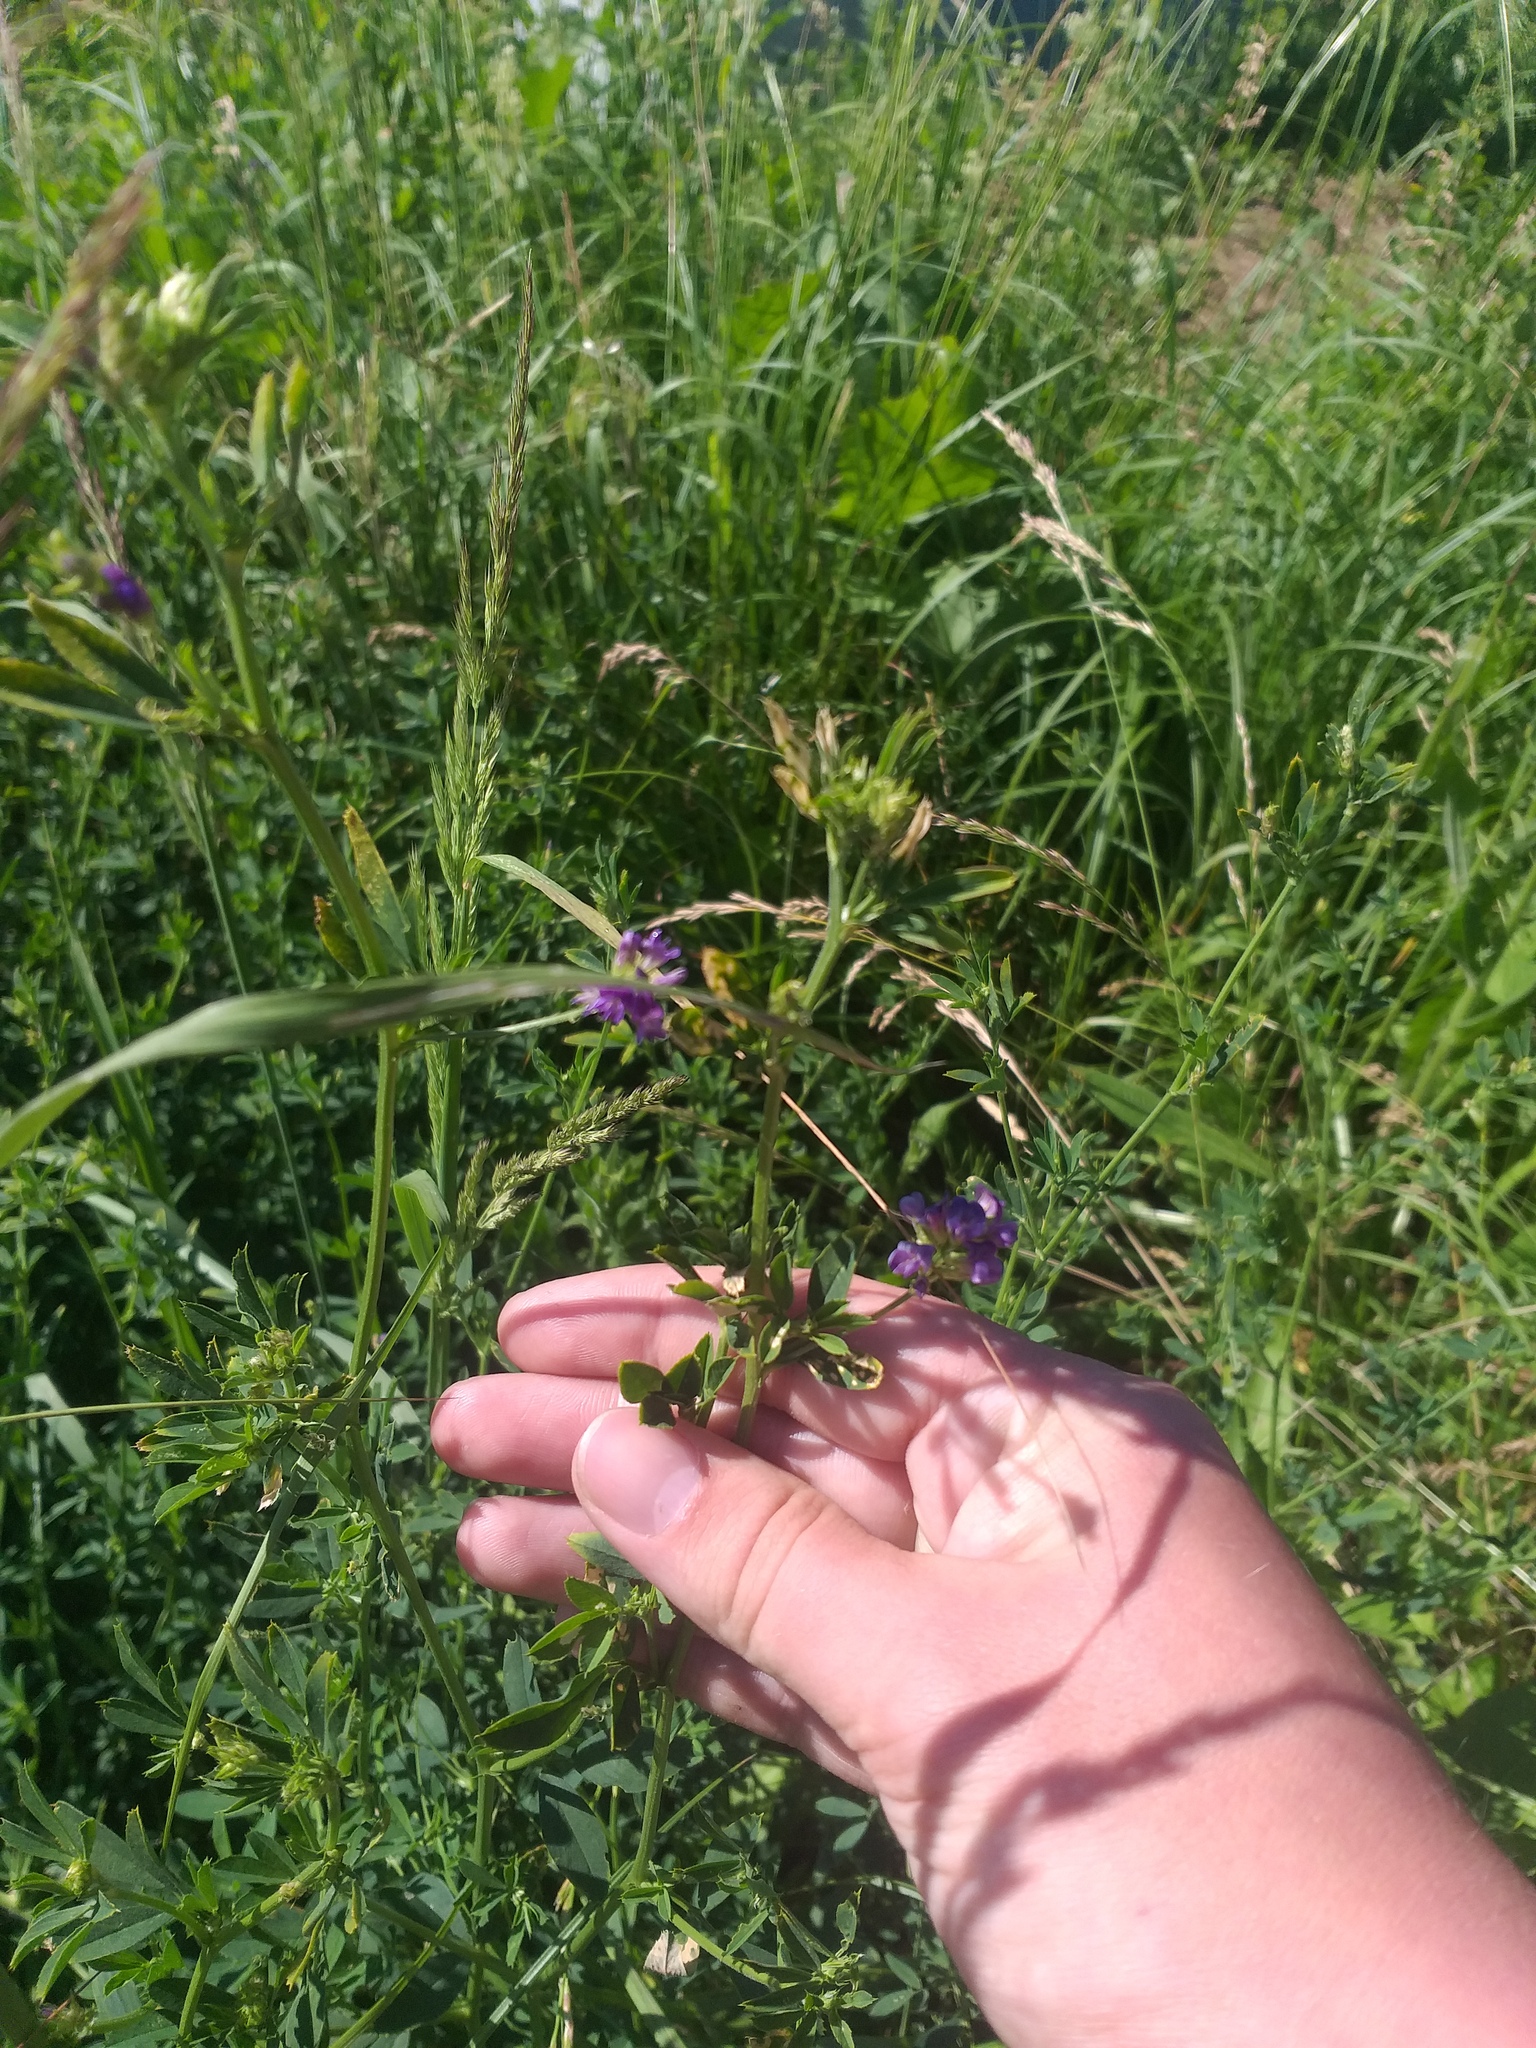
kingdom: Plantae
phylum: Tracheophyta
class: Magnoliopsida
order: Fabales
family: Fabaceae
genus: Medicago
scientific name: Medicago sativa
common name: Alfalfa
